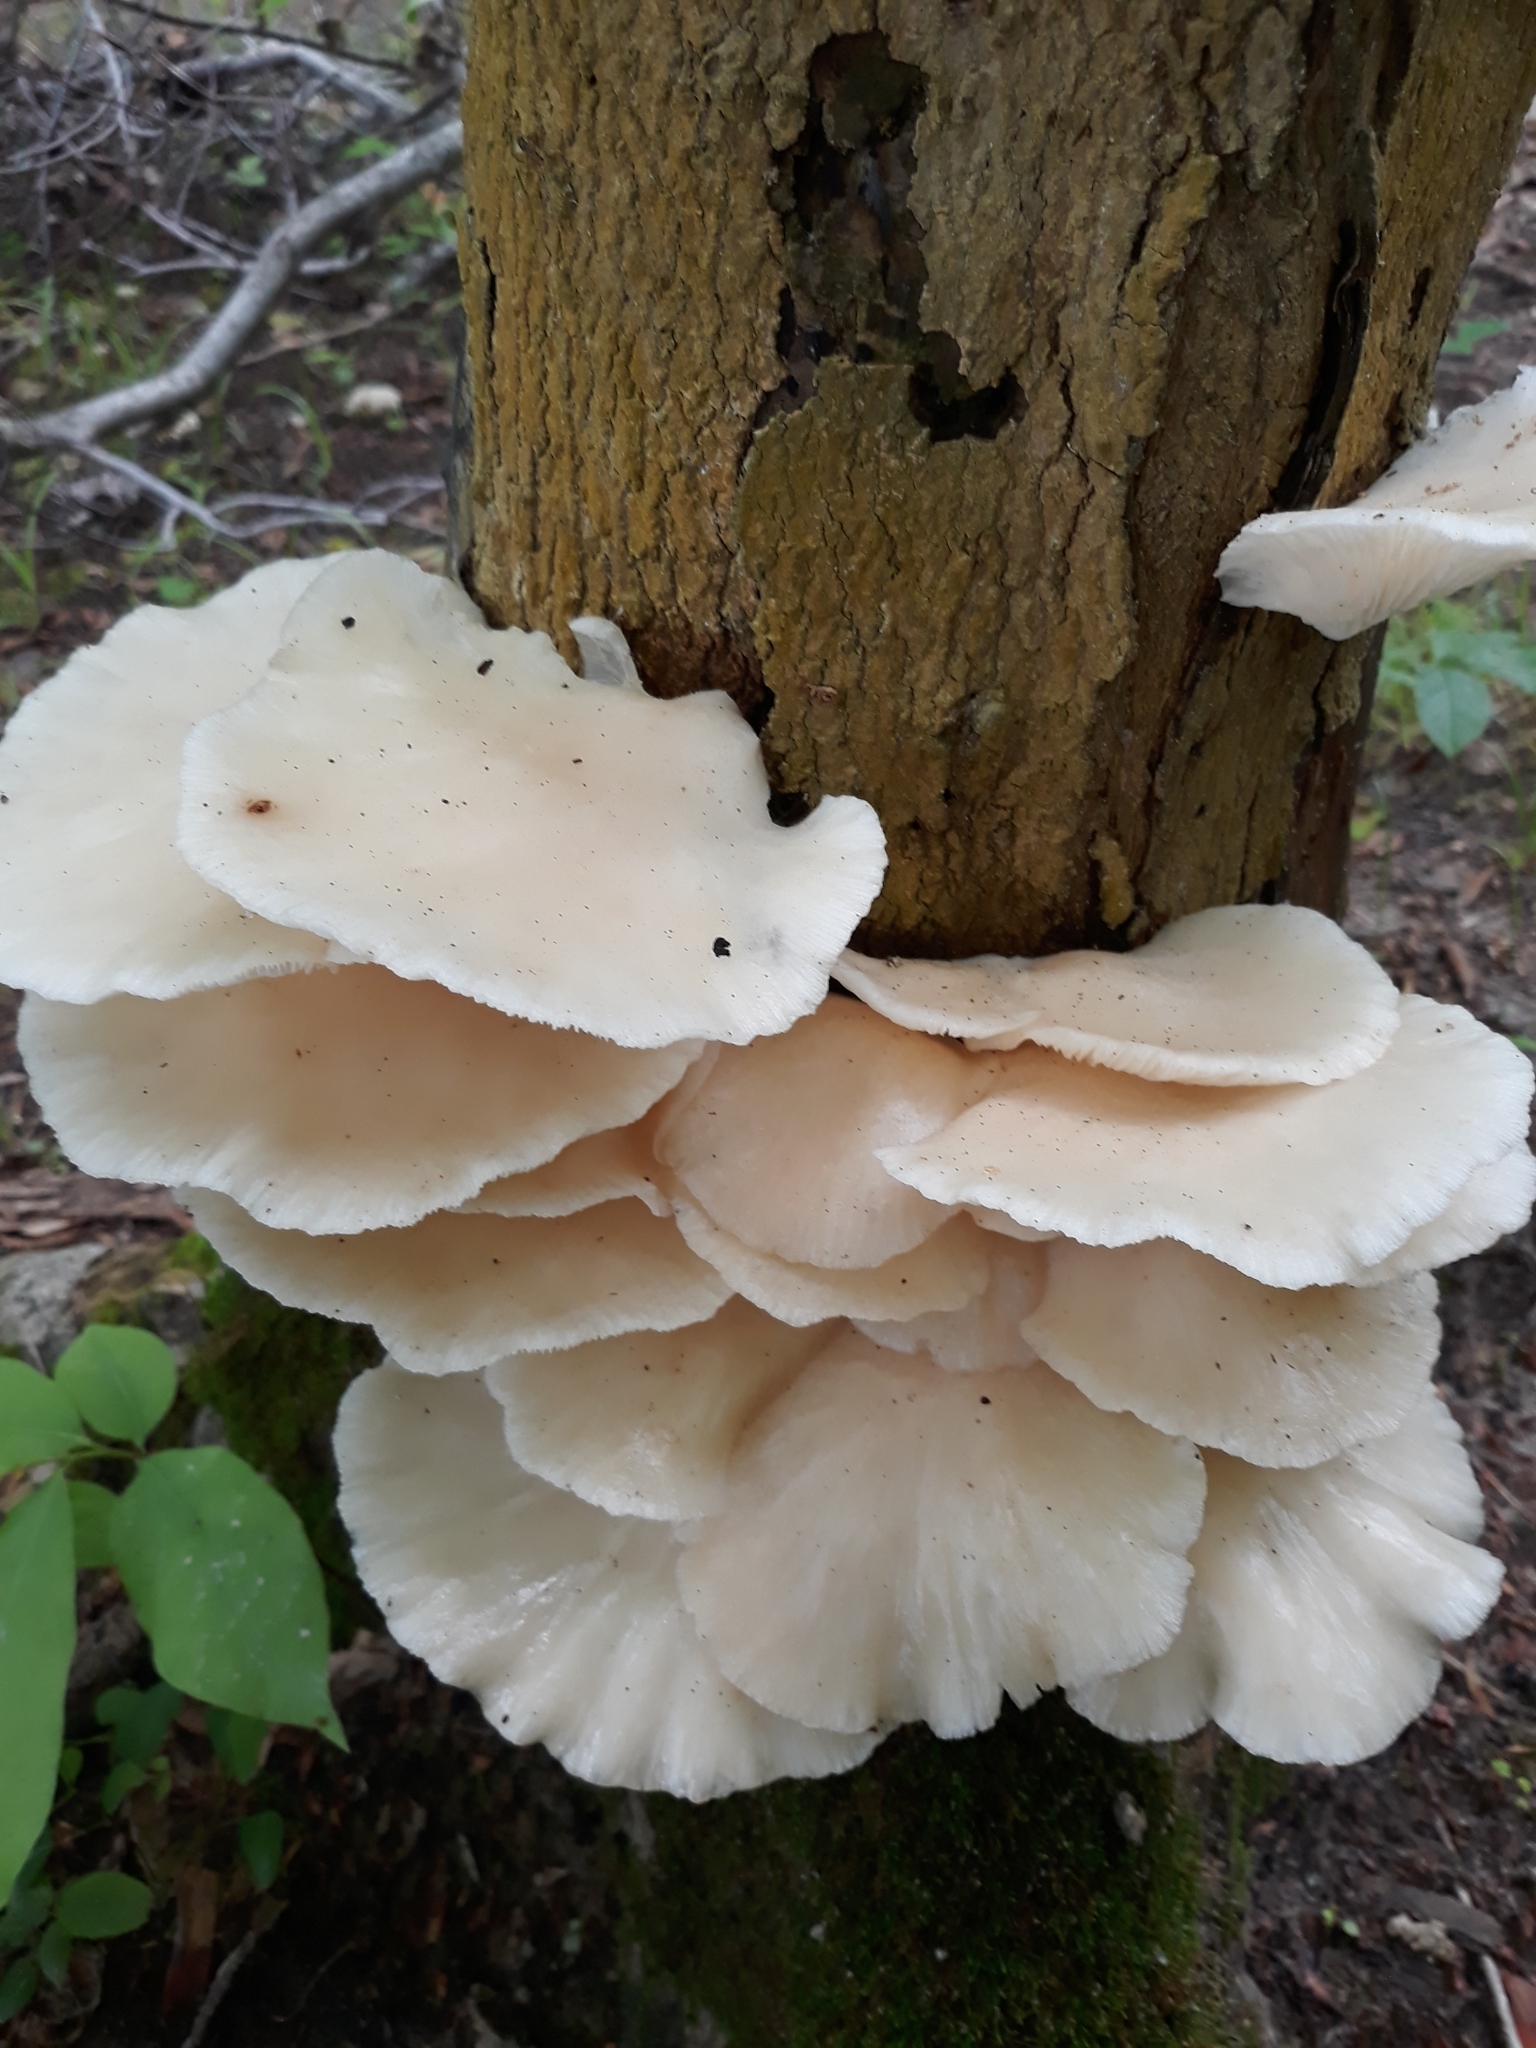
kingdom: Fungi
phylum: Basidiomycota
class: Agaricomycetes
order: Agaricales
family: Pleurotaceae
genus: Pleurotus
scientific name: Pleurotus pulmonarius
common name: Pale oyster
